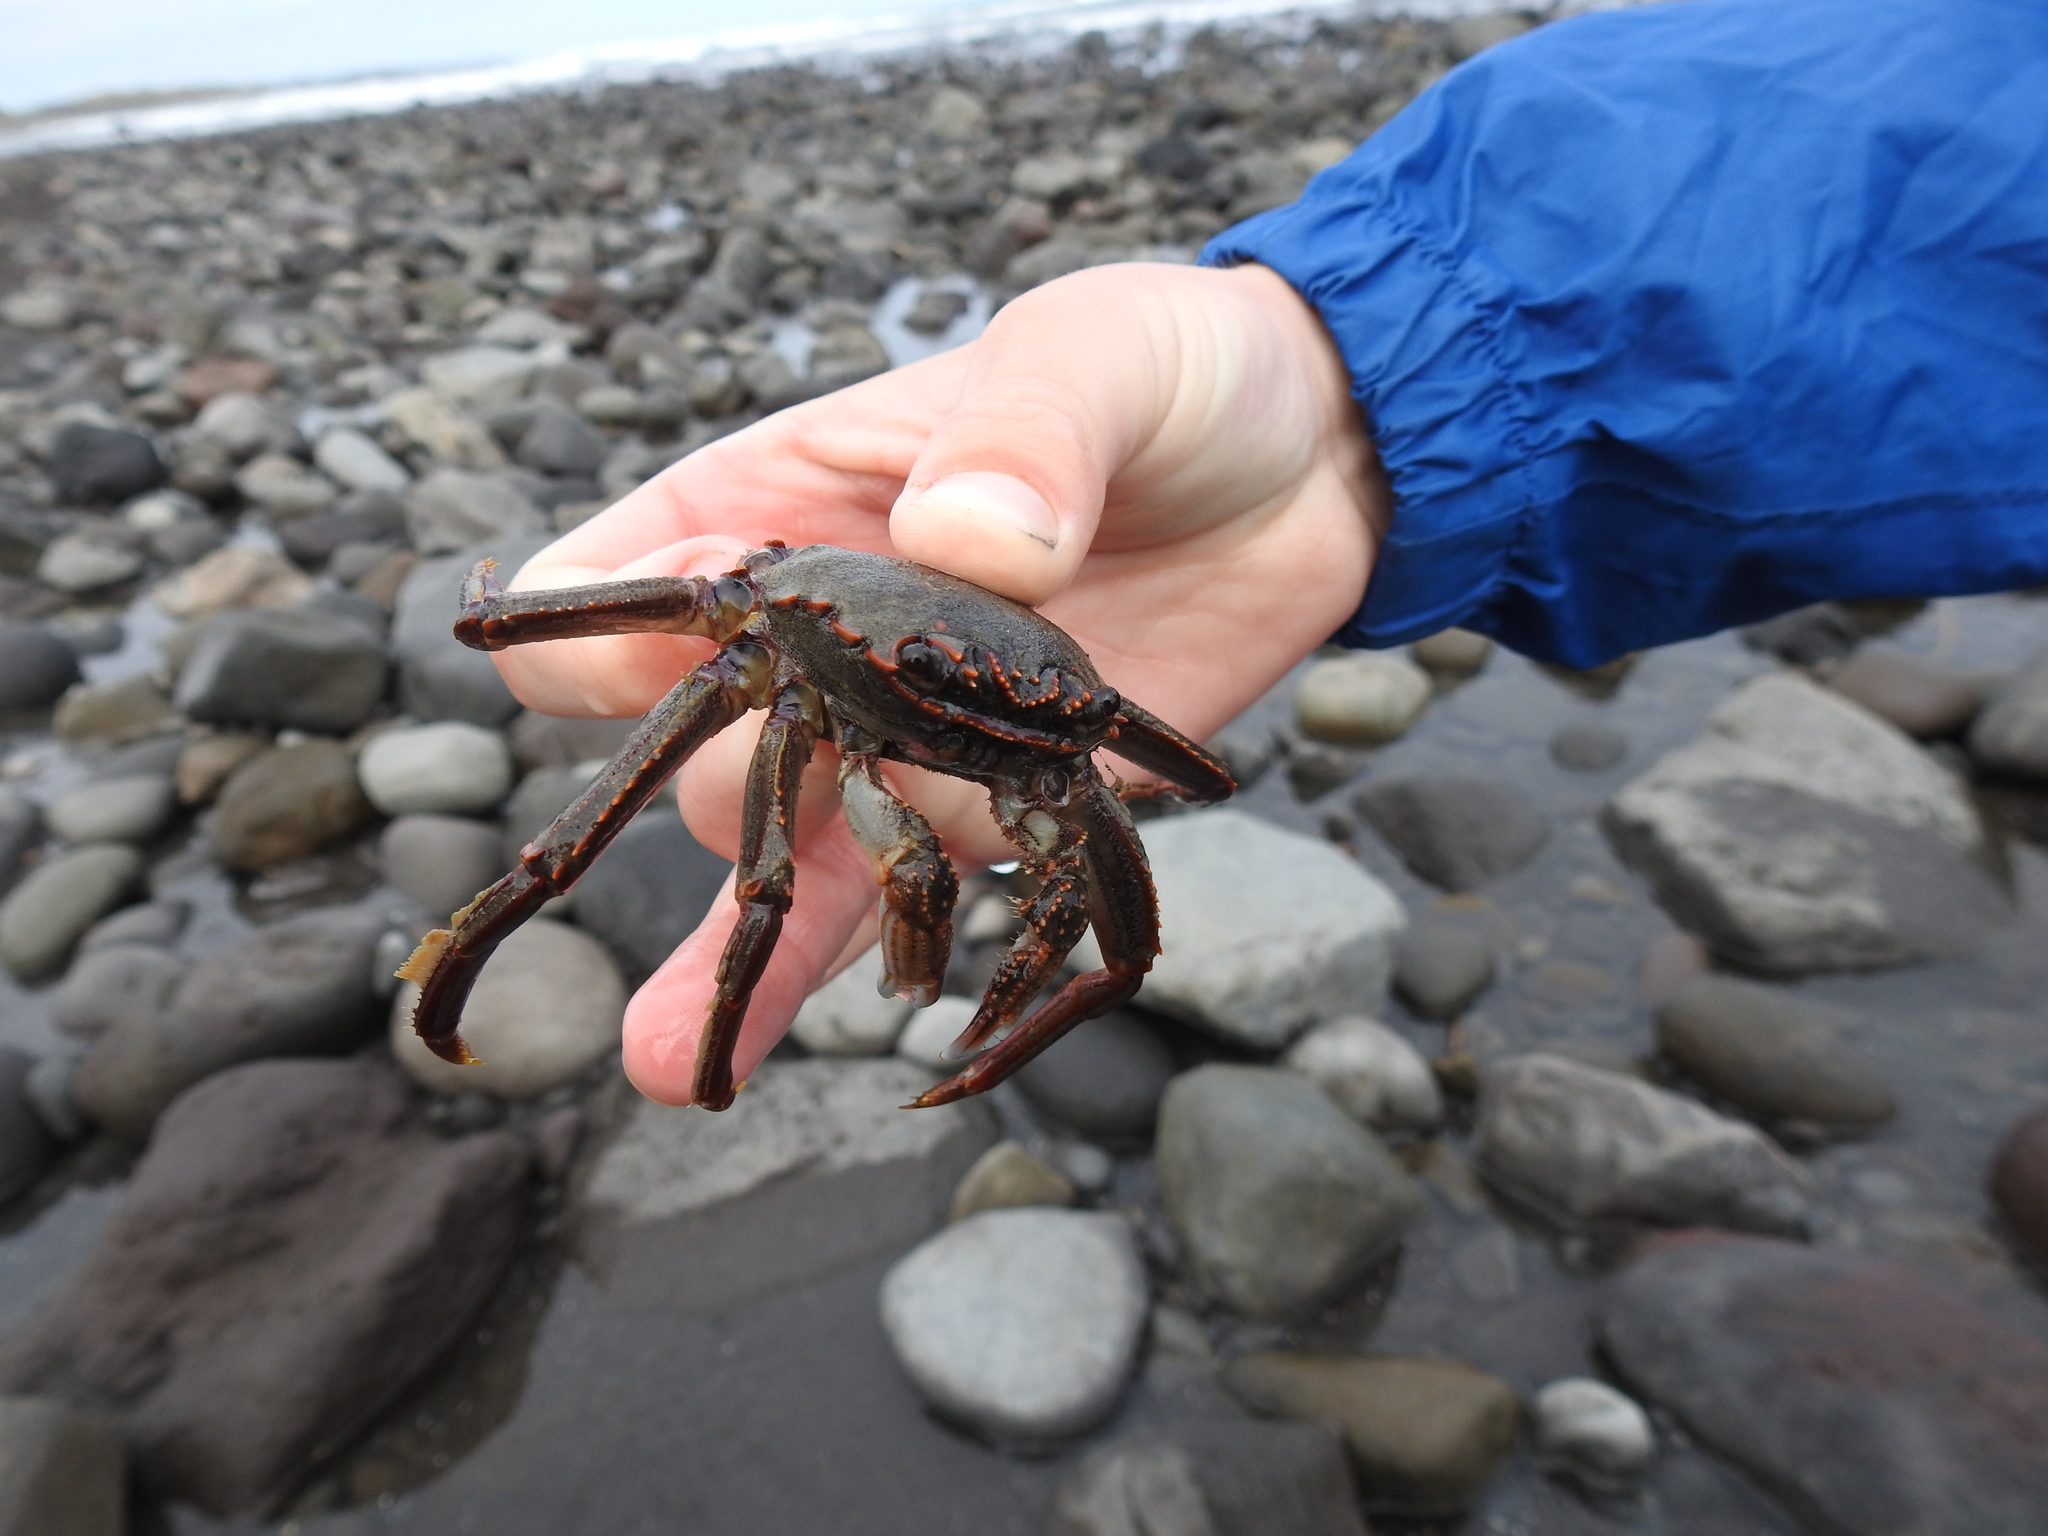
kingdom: Animalia
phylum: Arthropoda
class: Malacostraca
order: Decapoda
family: Plagusiidae
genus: Guinusia
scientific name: Guinusia chabrus
